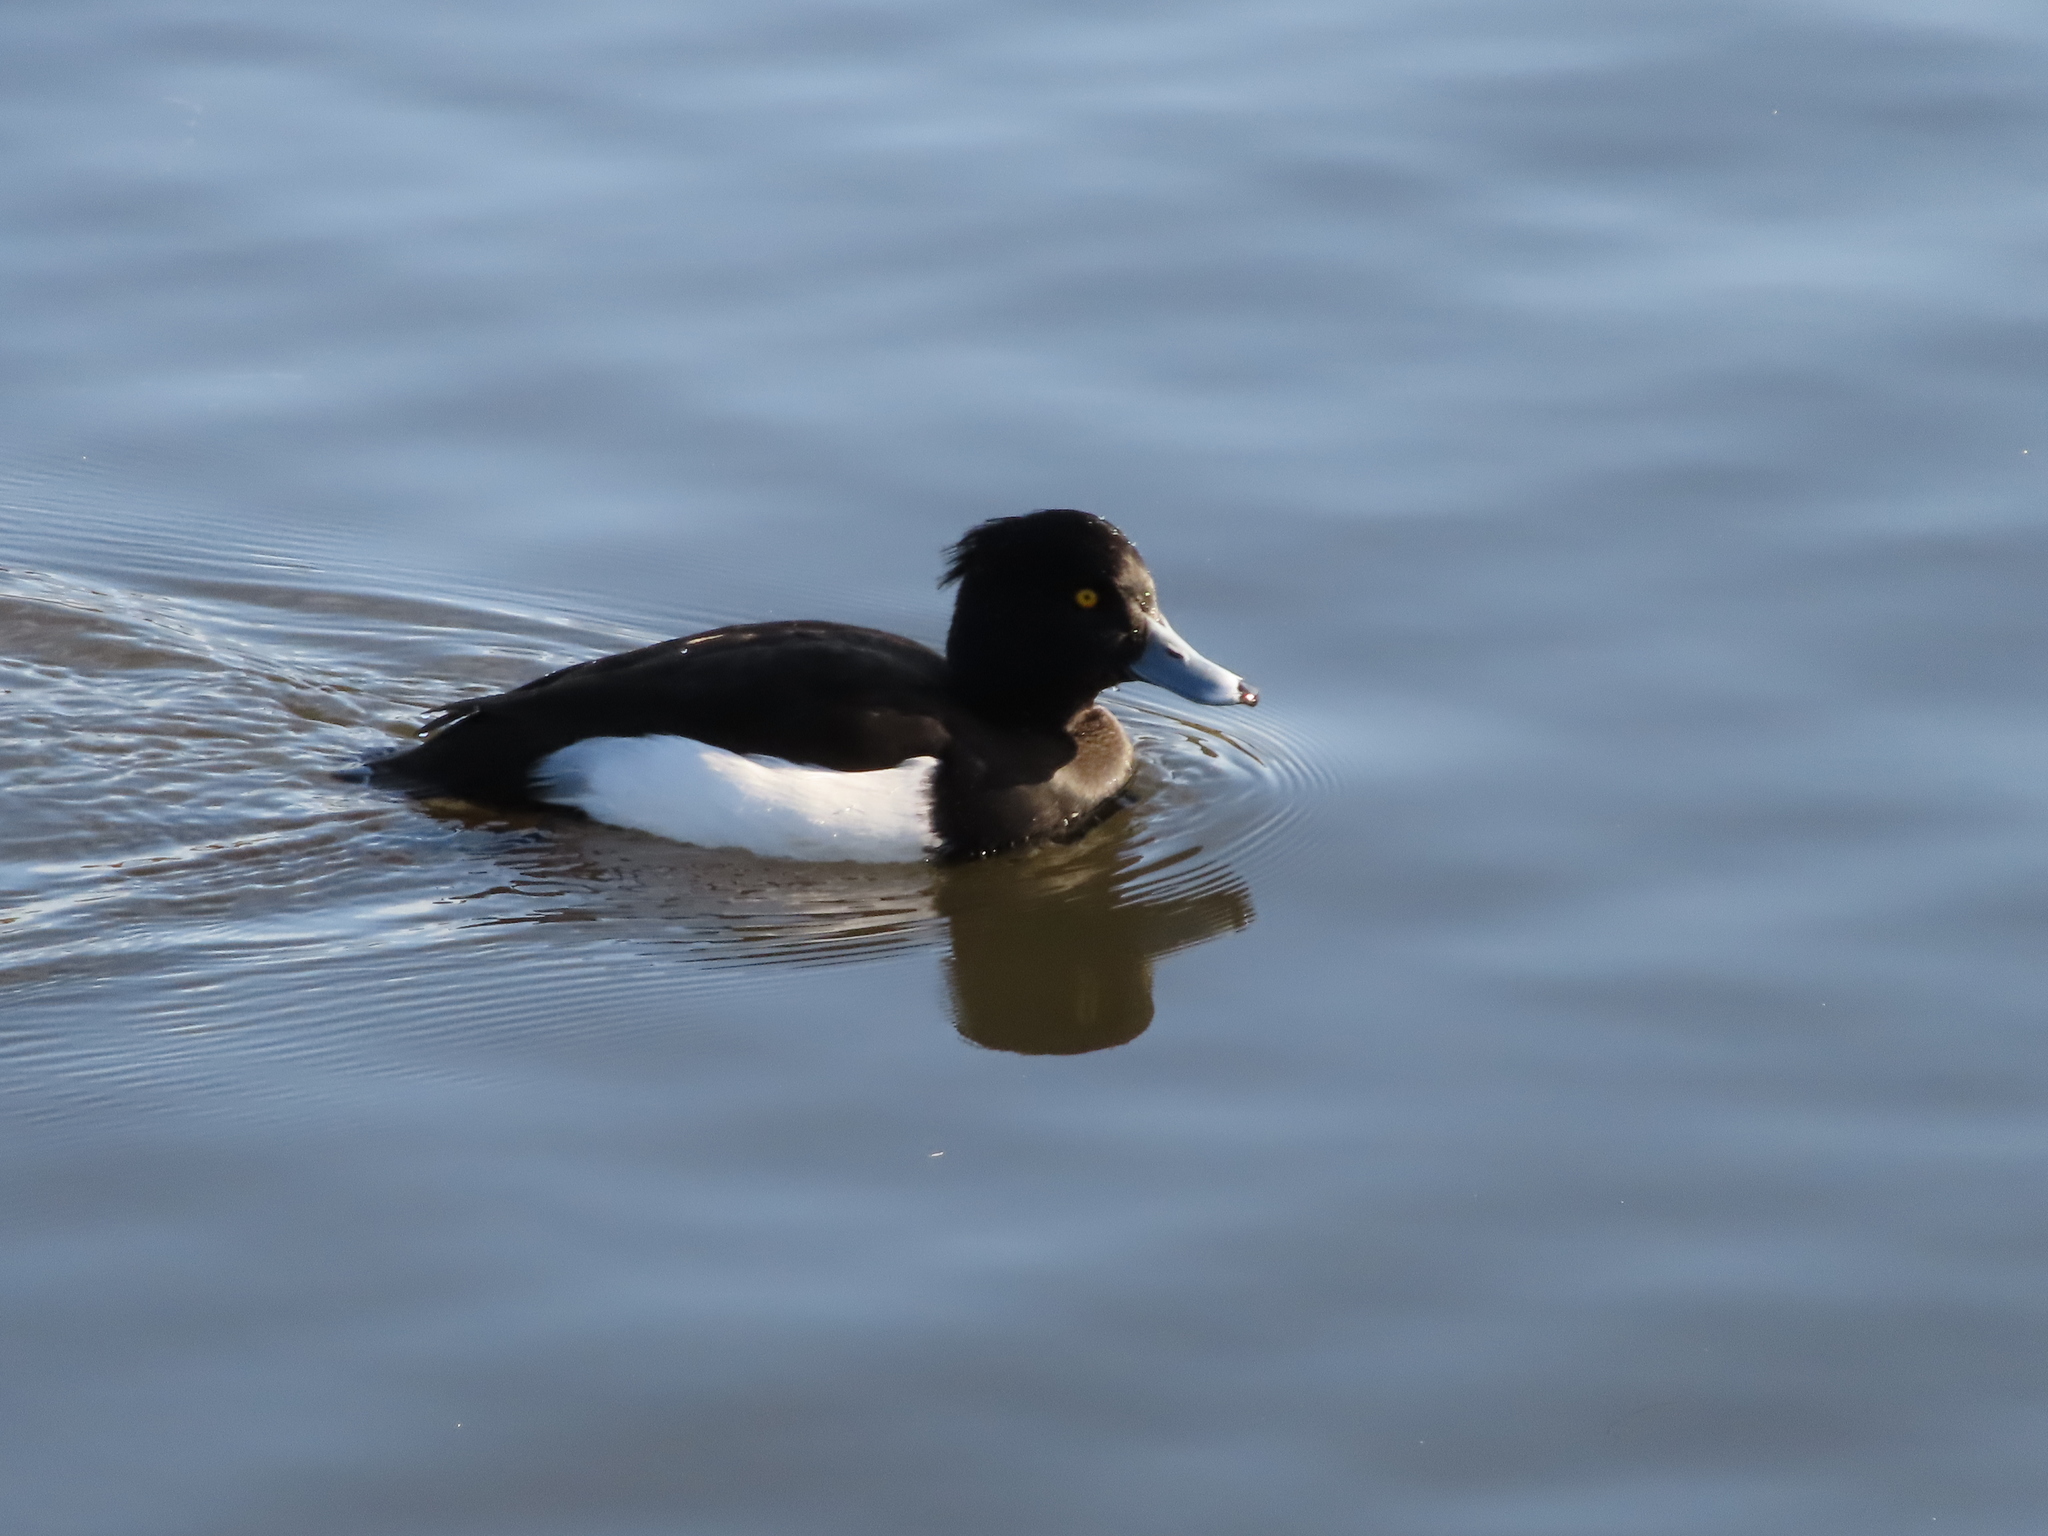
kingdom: Animalia
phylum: Chordata
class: Aves
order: Anseriformes
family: Anatidae
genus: Aythya
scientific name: Aythya fuligula
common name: Tufted duck
